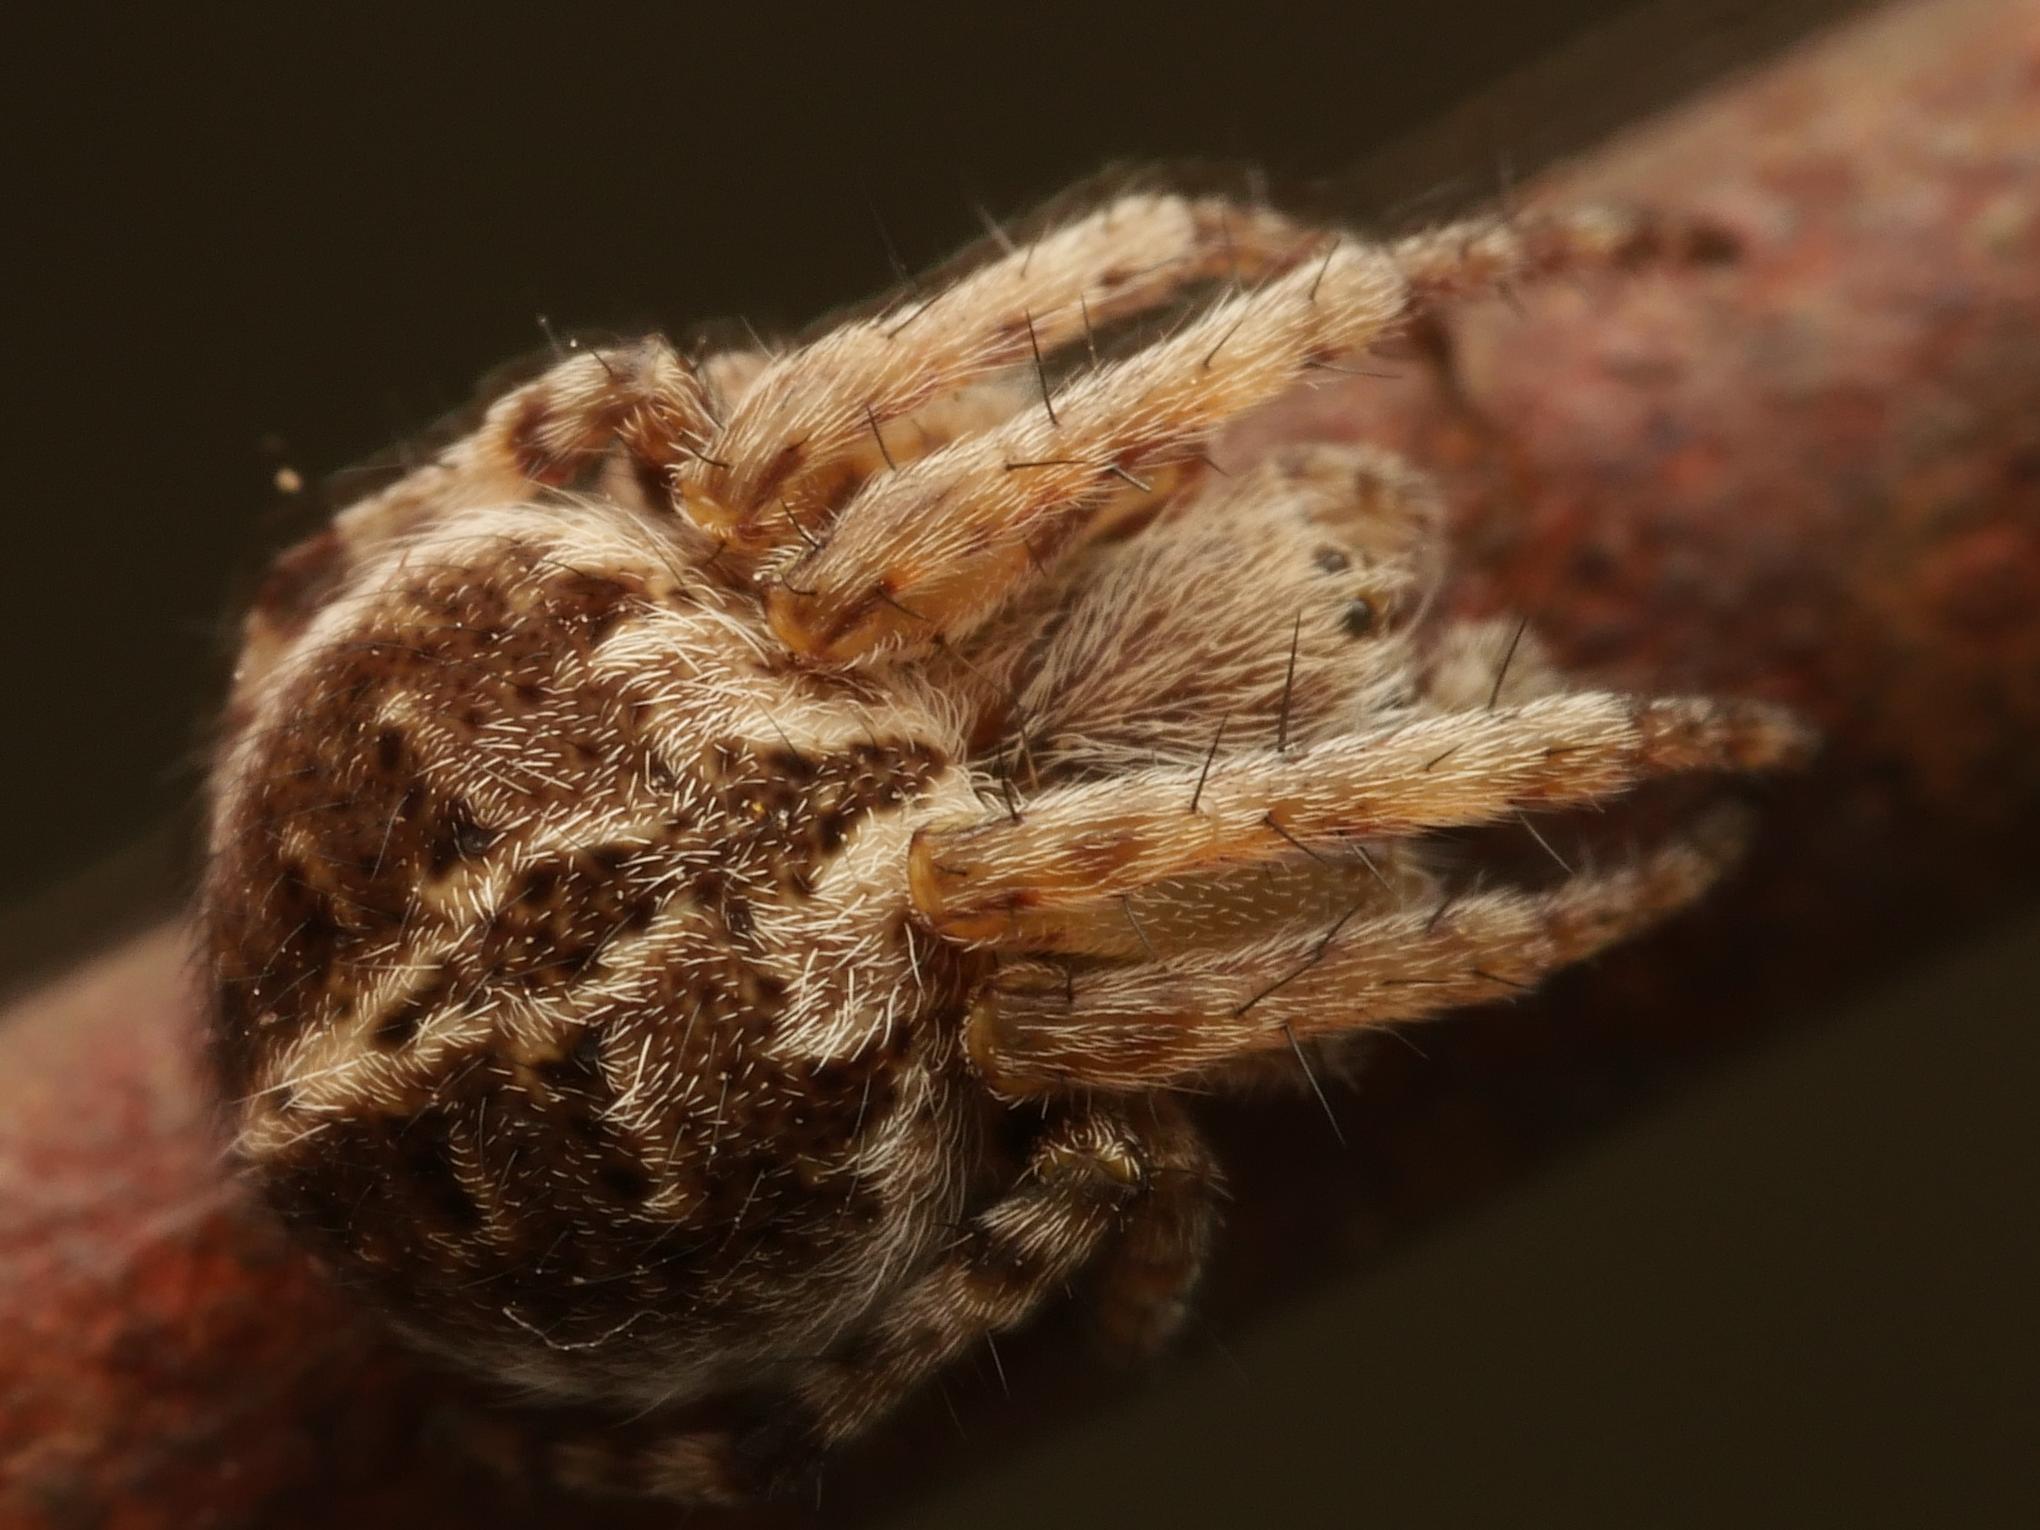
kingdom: Animalia
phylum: Arthropoda
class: Arachnida
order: Araneae
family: Araneidae
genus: Agalenatea
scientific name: Agalenatea redii
